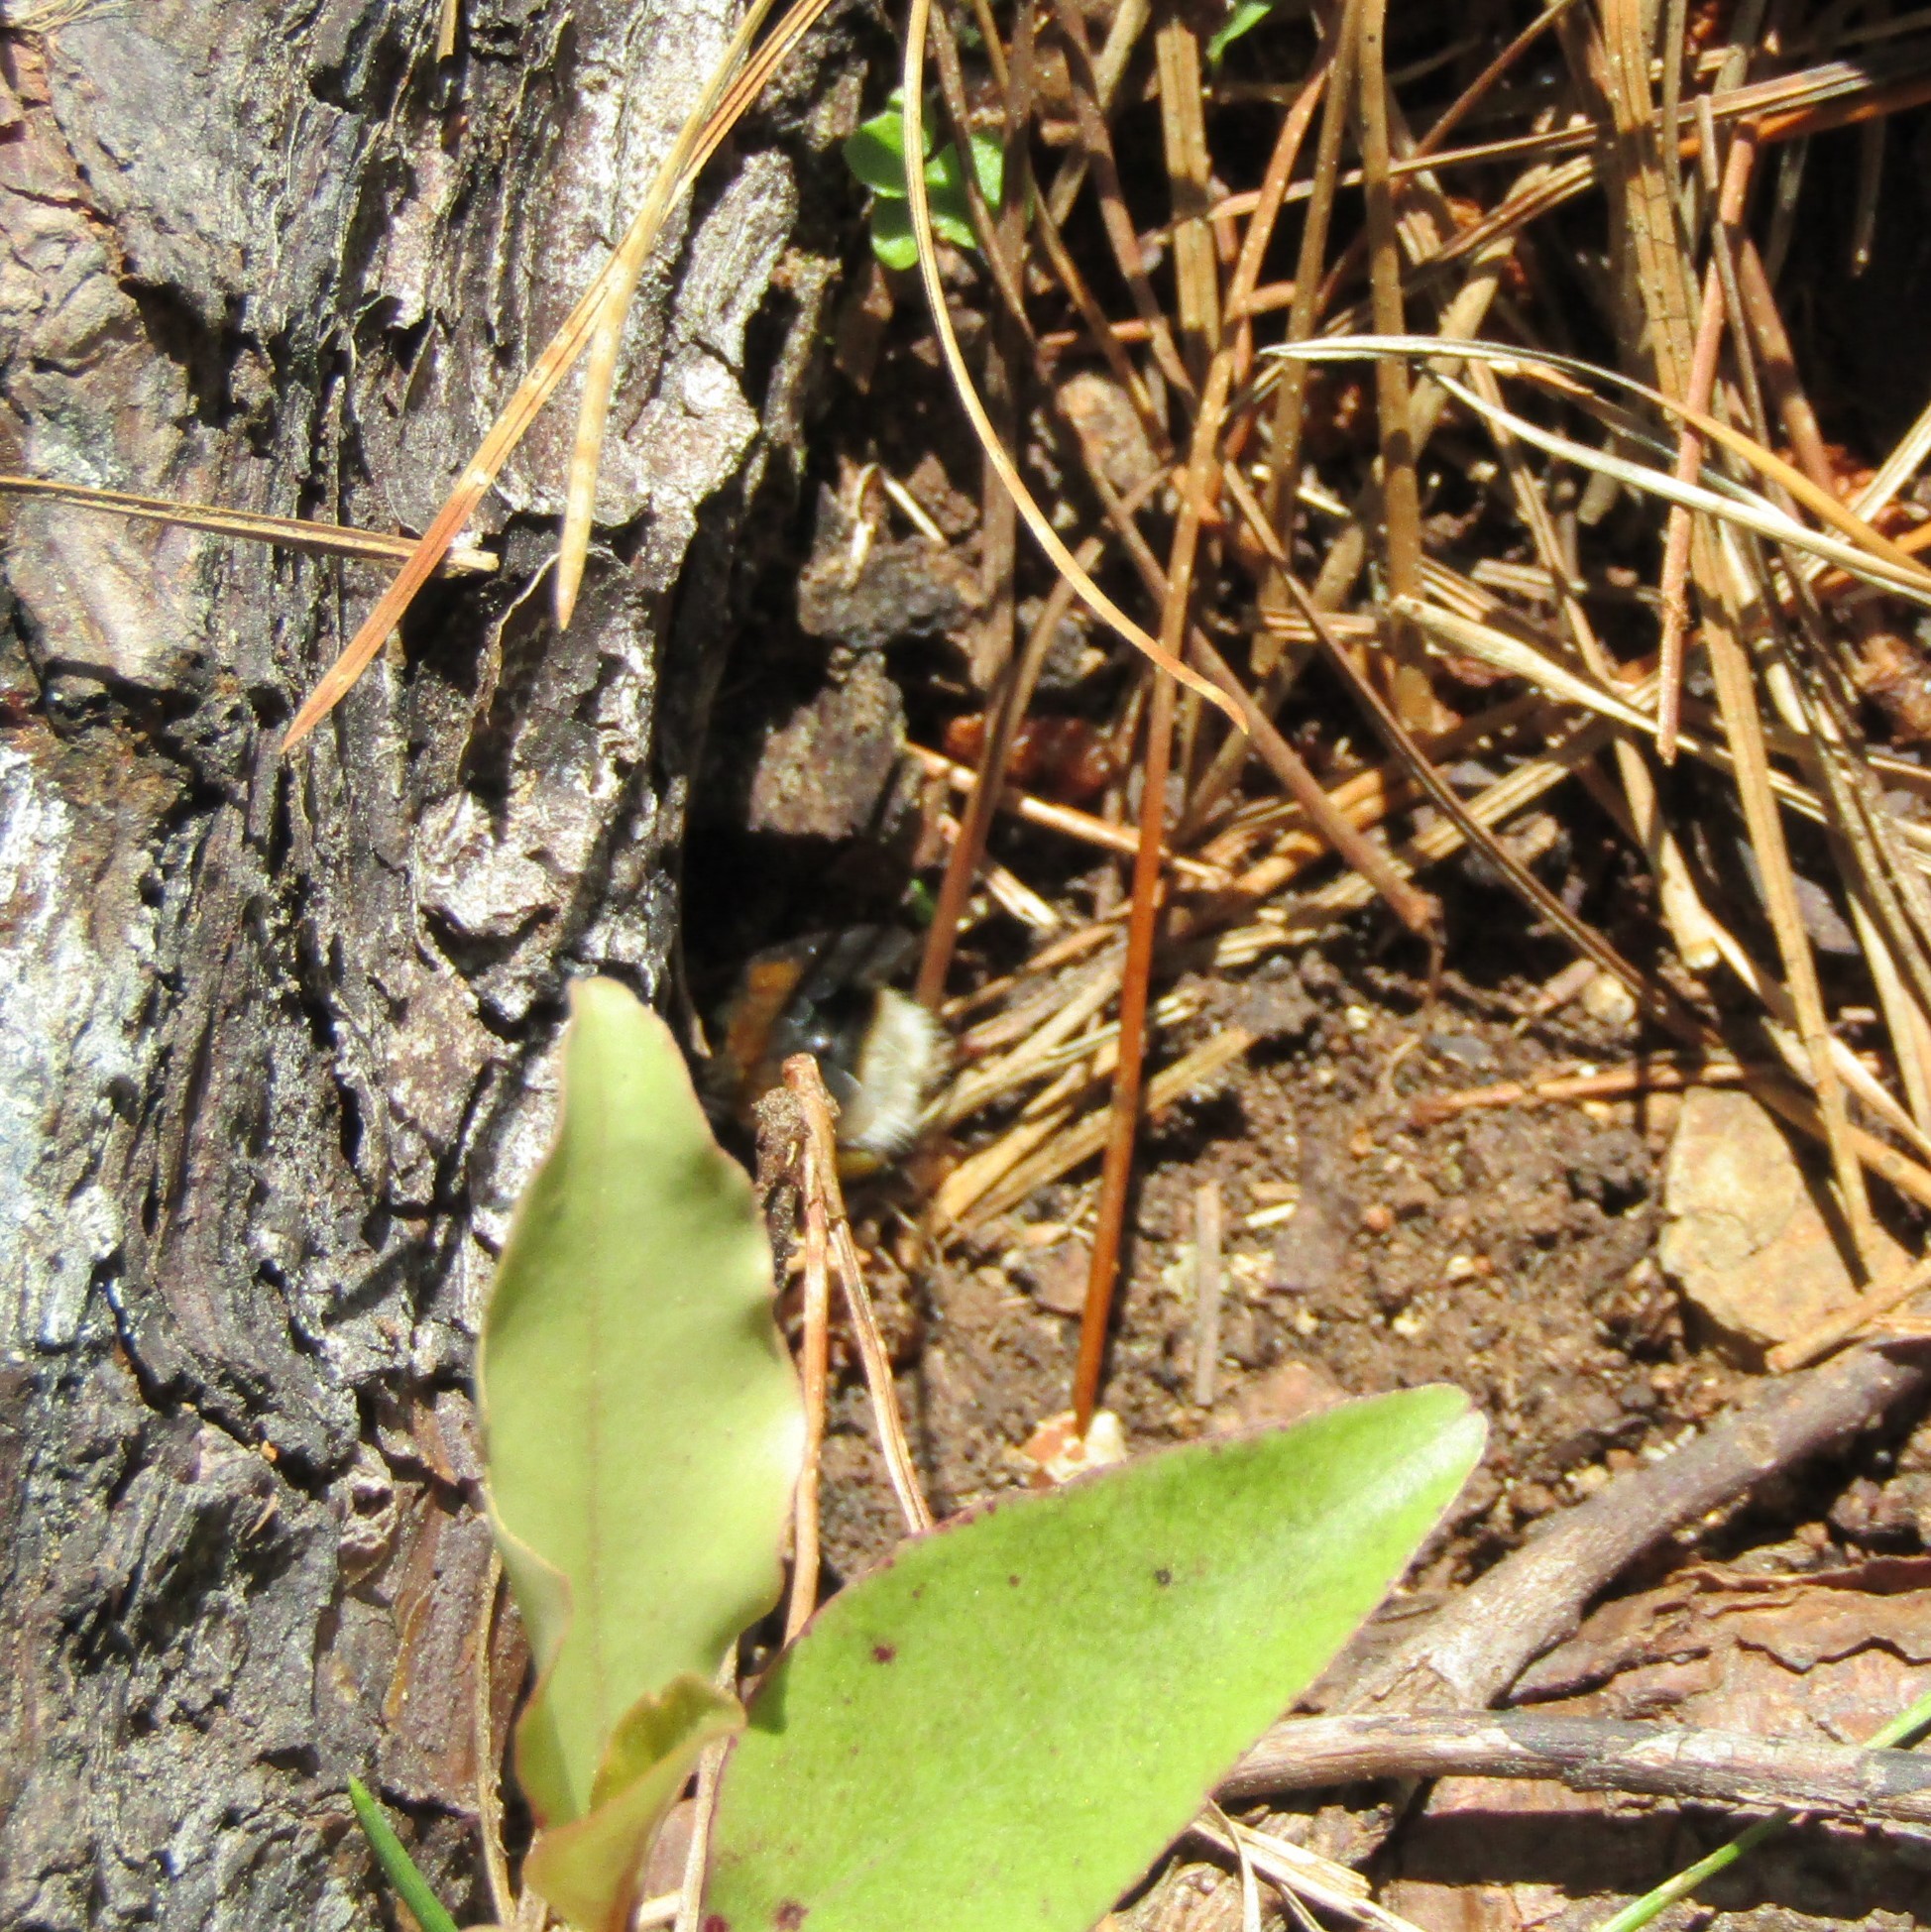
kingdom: Animalia
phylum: Arthropoda
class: Insecta
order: Hymenoptera
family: Apidae
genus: Bombus
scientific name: Bombus terrestris
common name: Buff-tailed bumblebee
